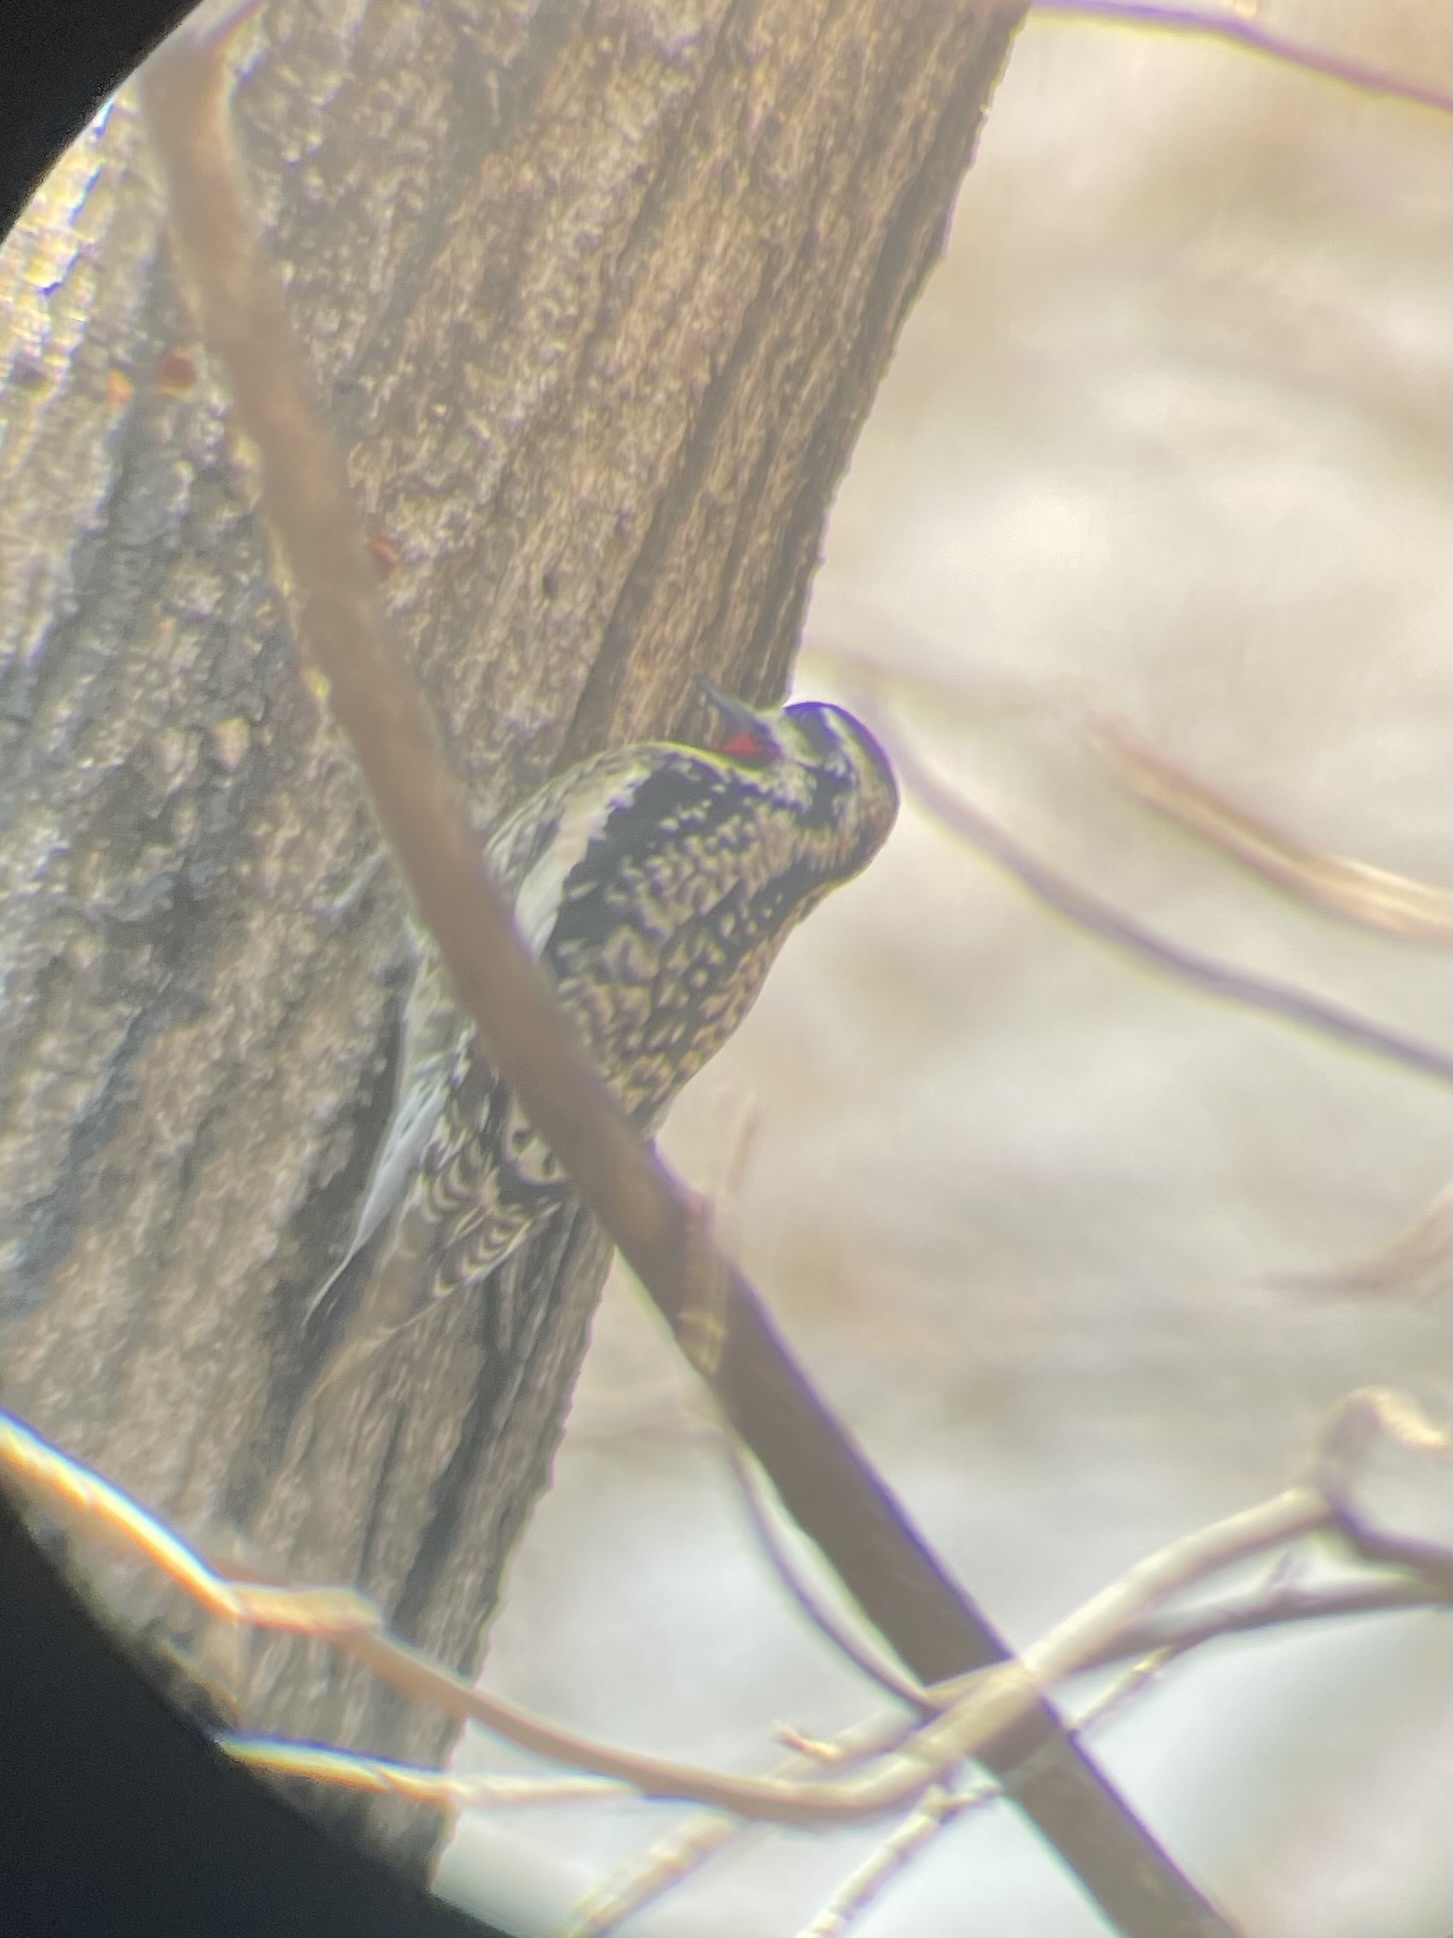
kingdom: Animalia
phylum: Chordata
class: Aves
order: Piciformes
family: Picidae
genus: Sphyrapicus
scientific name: Sphyrapicus varius
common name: Yellow-bellied sapsucker
